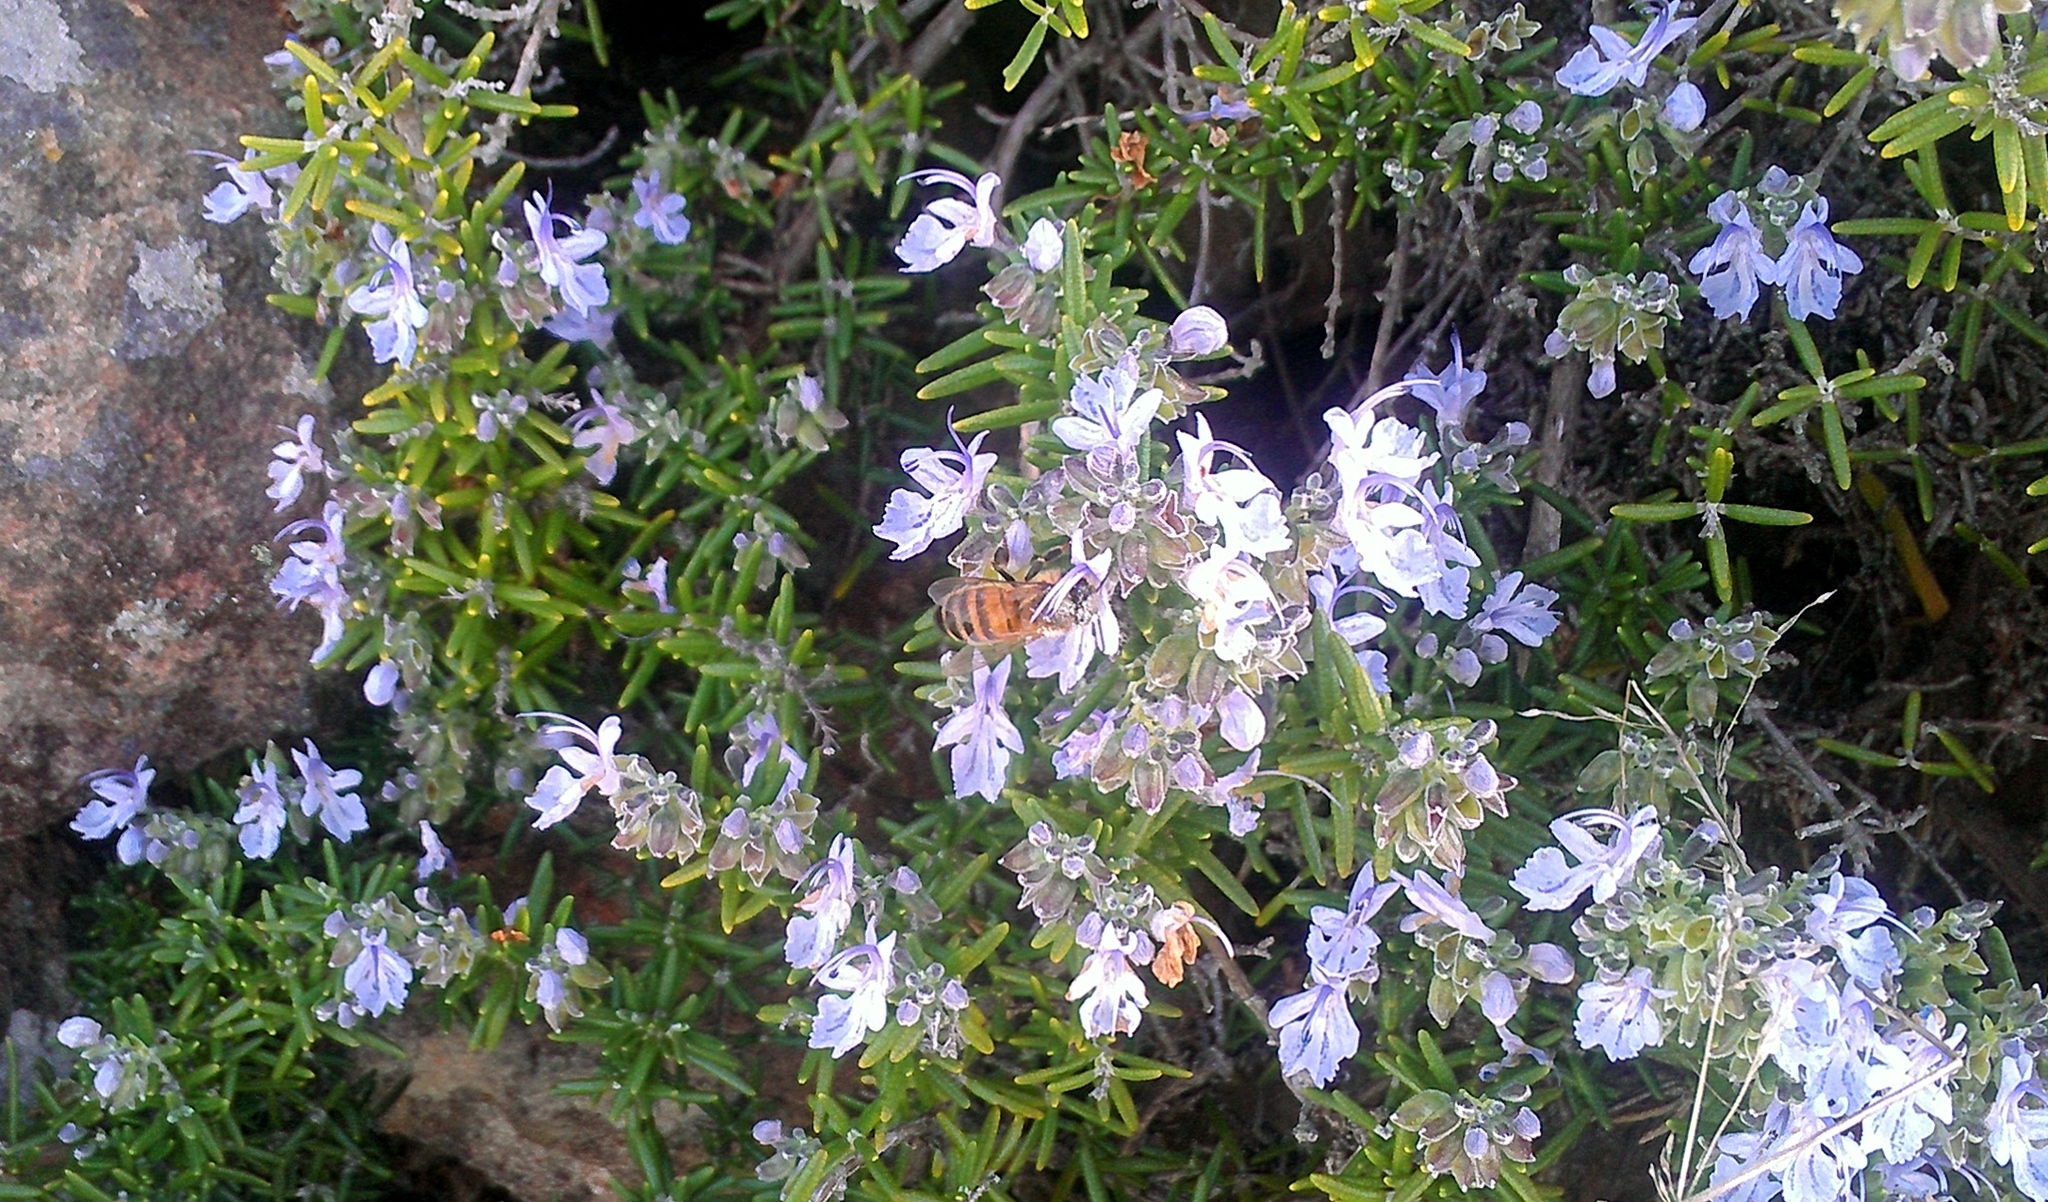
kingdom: Animalia
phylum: Arthropoda
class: Insecta
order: Hymenoptera
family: Apidae
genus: Apis
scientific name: Apis mellifera
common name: Honey bee
